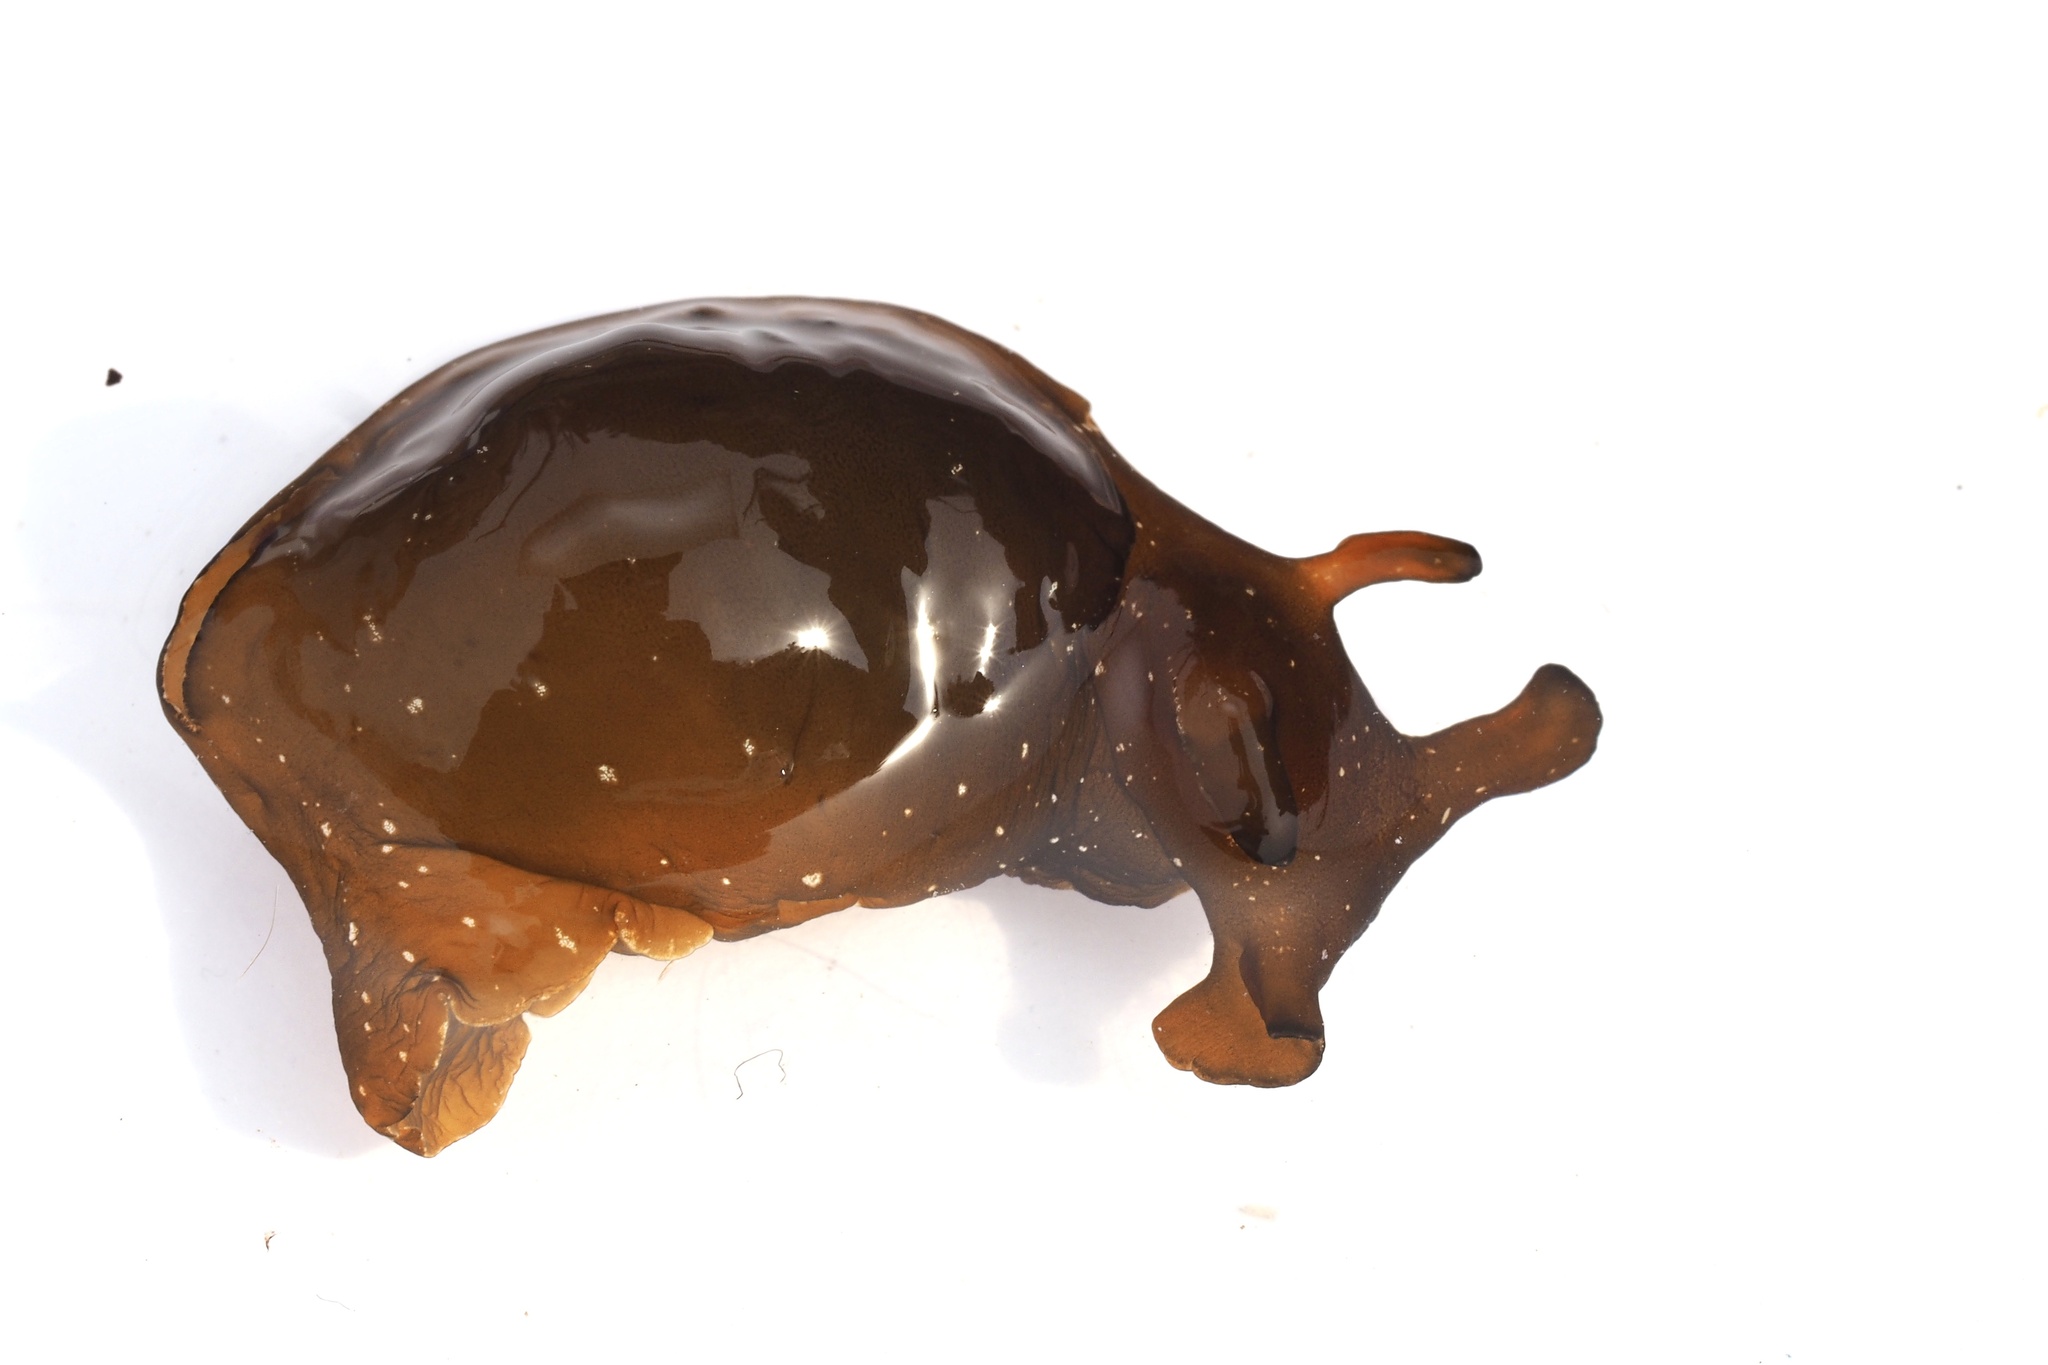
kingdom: Animalia
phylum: Mollusca
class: Gastropoda
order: Aplysiida
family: Aplysiidae
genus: Aplysia
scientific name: Aplysia juliana
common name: Walking sea hare
